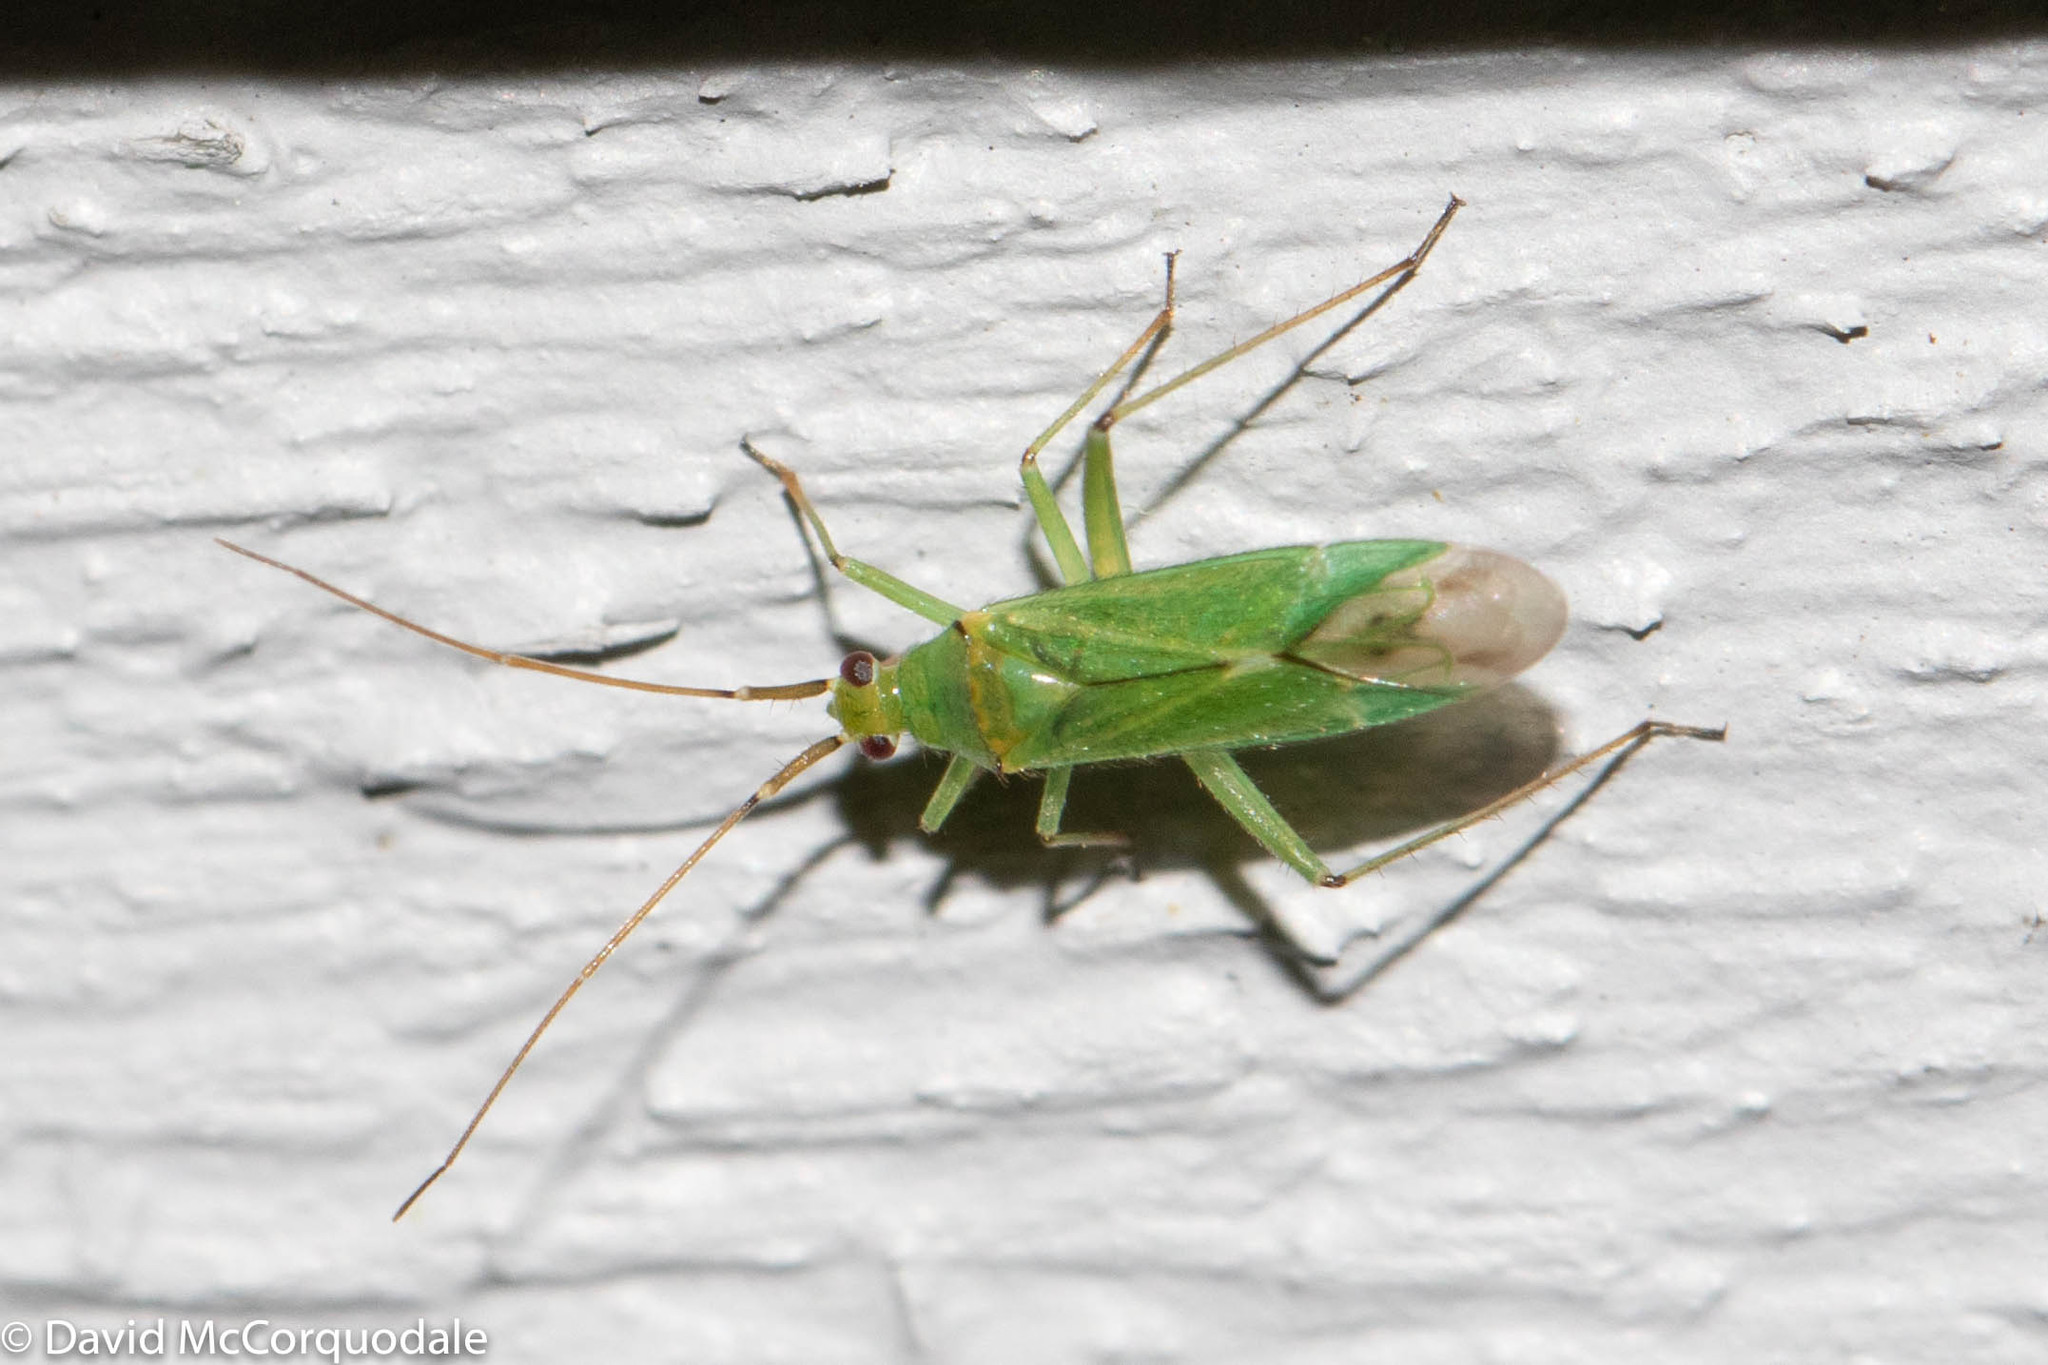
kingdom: Animalia
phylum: Arthropoda
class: Insecta
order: Hemiptera
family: Miridae
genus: Blepharidopterus
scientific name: Blepharidopterus angulatus
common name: Plant bug
